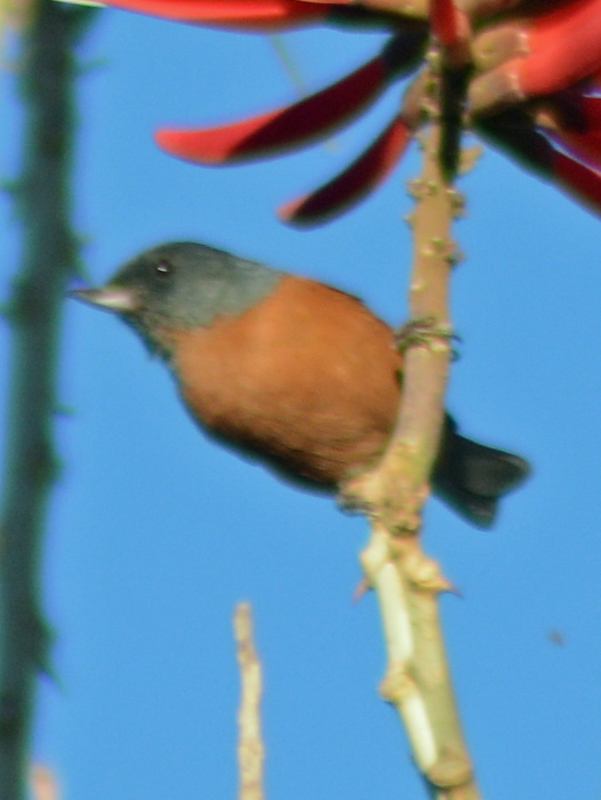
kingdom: Animalia
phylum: Chordata
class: Aves
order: Passeriformes
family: Thraupidae
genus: Diglossa
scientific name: Diglossa baritula
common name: Cinnamon-bellied flowerpiercer
